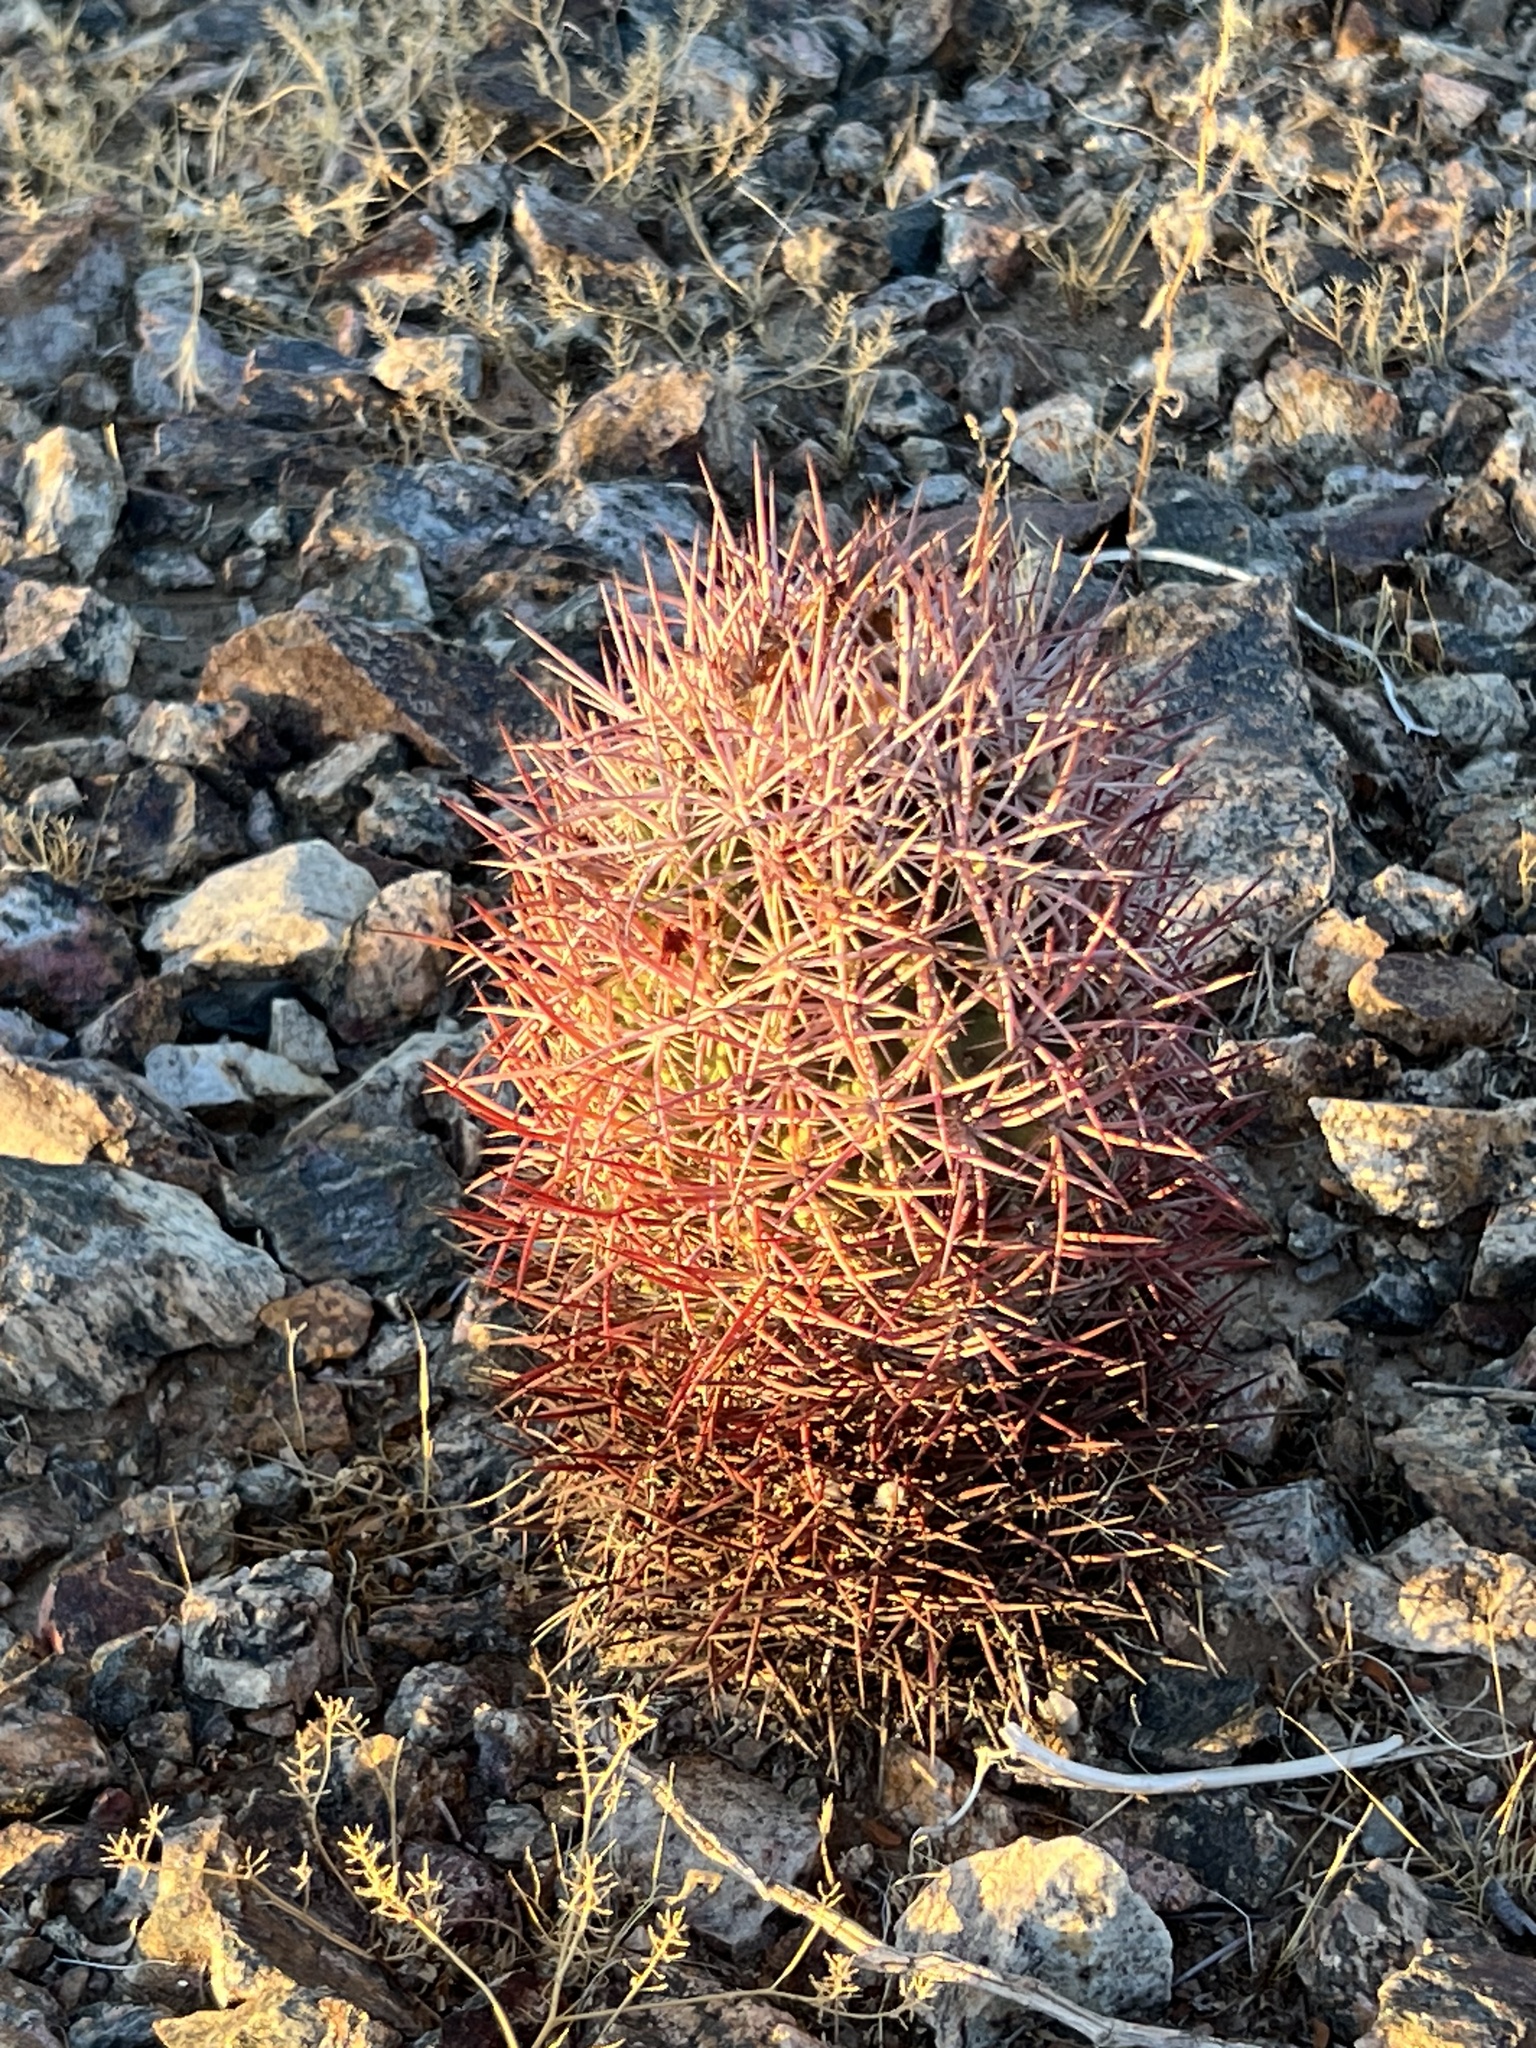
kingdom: Plantae
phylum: Tracheophyta
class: Magnoliopsida
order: Caryophyllales
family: Cactaceae
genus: Sclerocactus
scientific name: Sclerocactus johnsonii
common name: Eight-spine fishhook cactus
